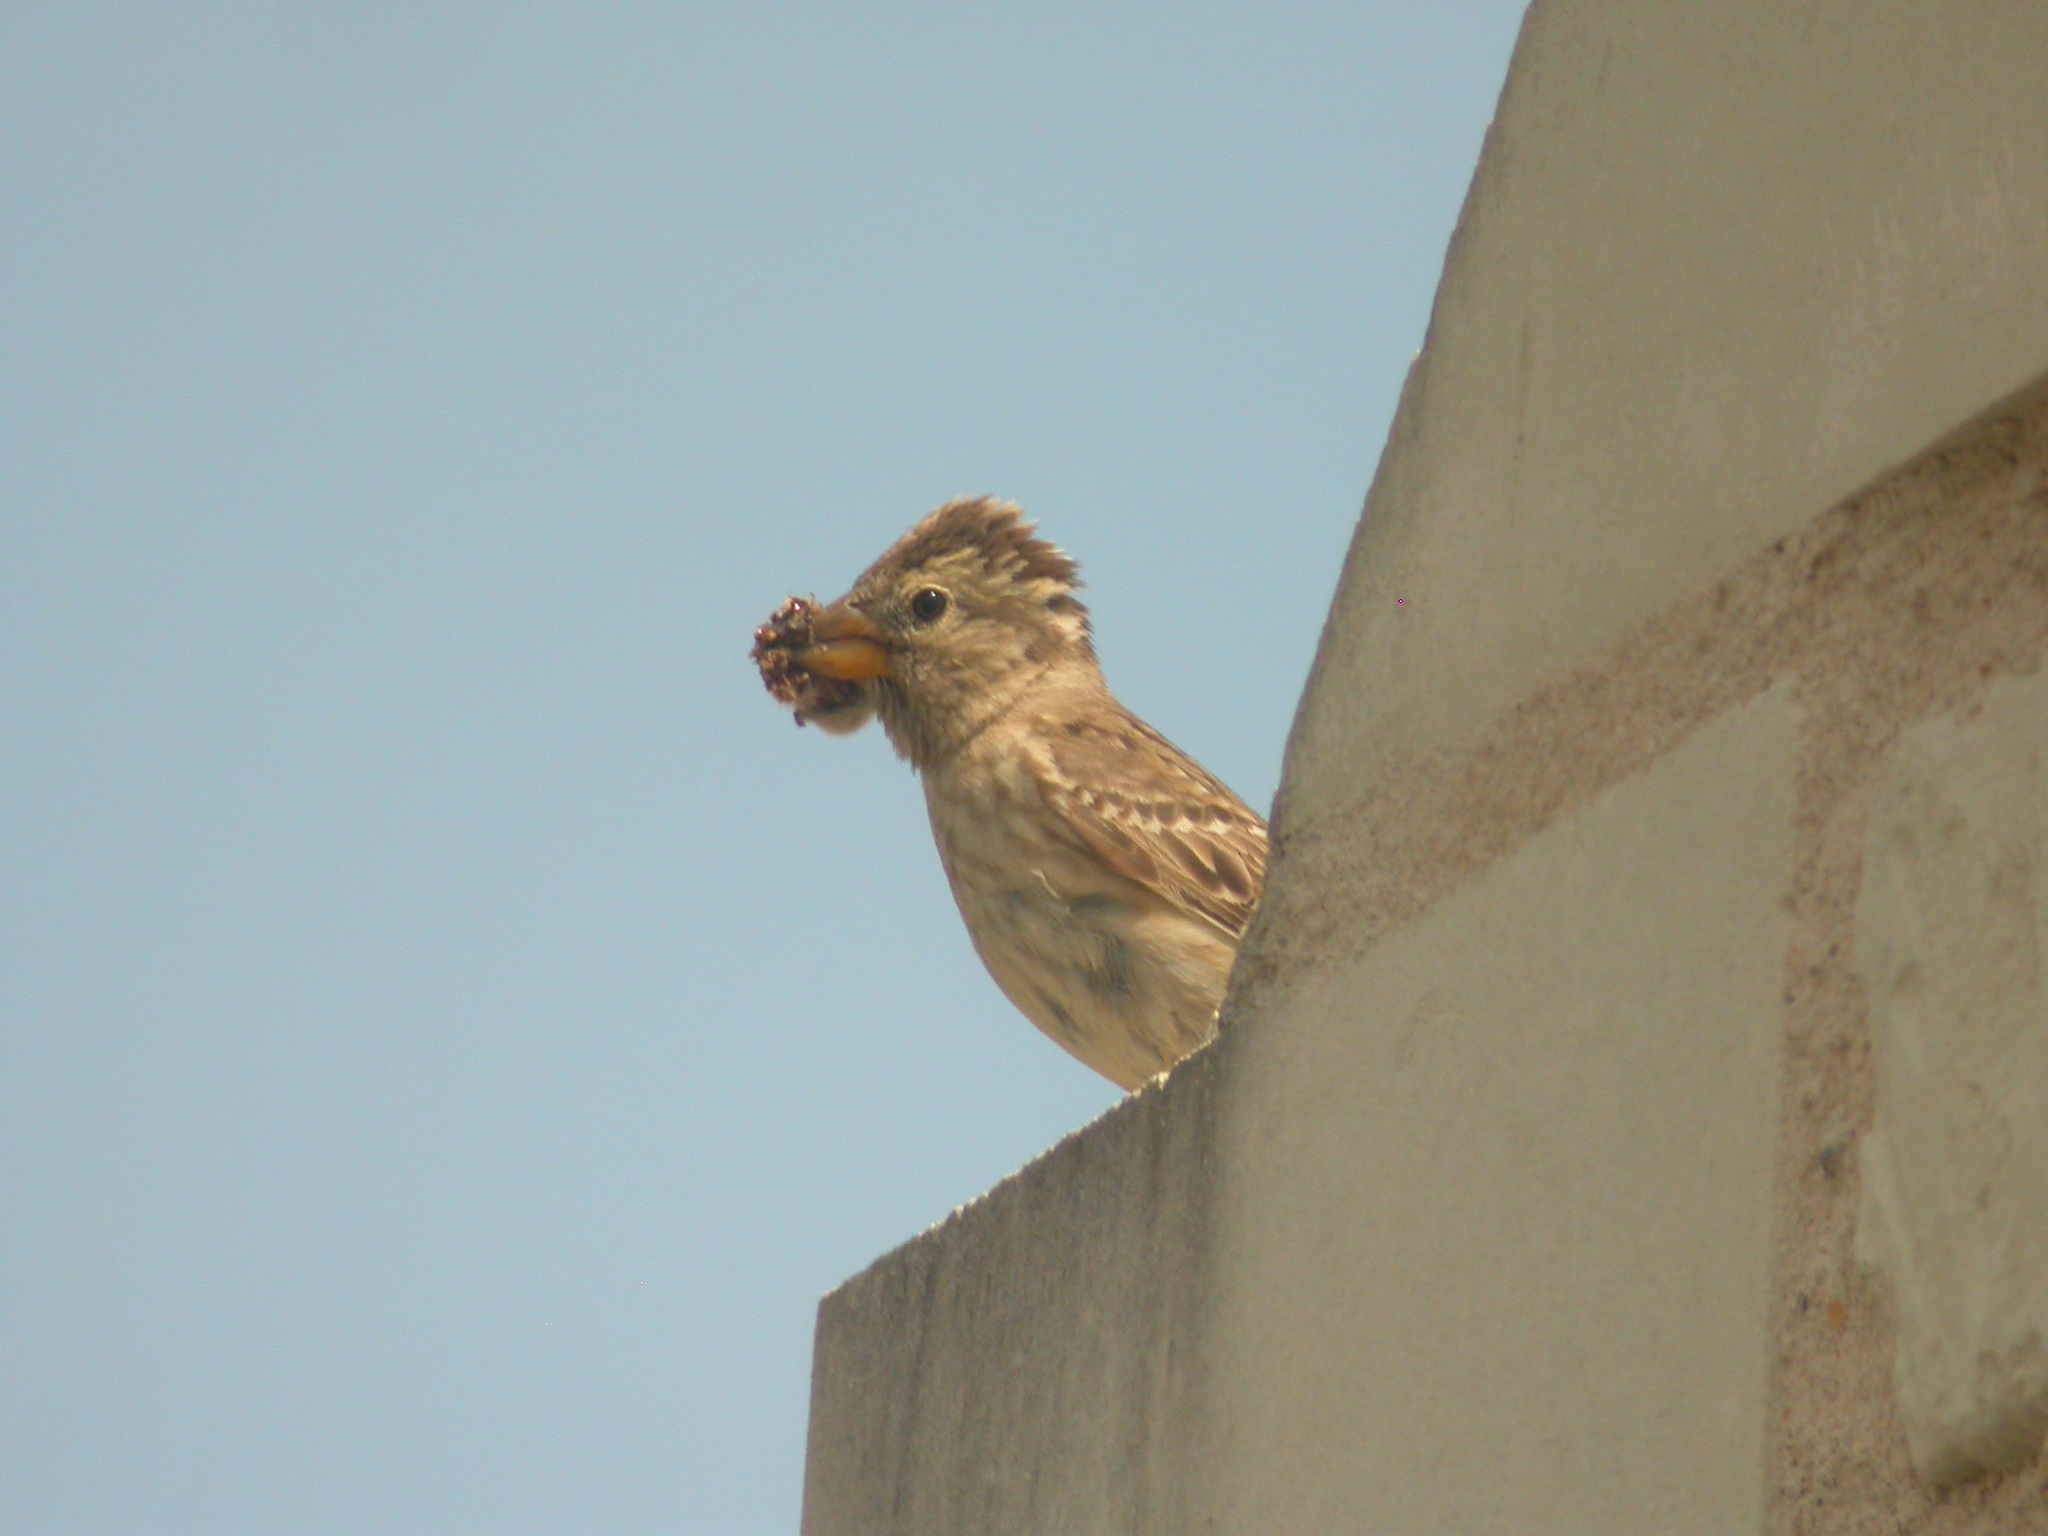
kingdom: Animalia
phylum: Chordata
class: Aves
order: Passeriformes
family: Passeridae
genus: Petronia
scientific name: Petronia petronia
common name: Rock sparrow
